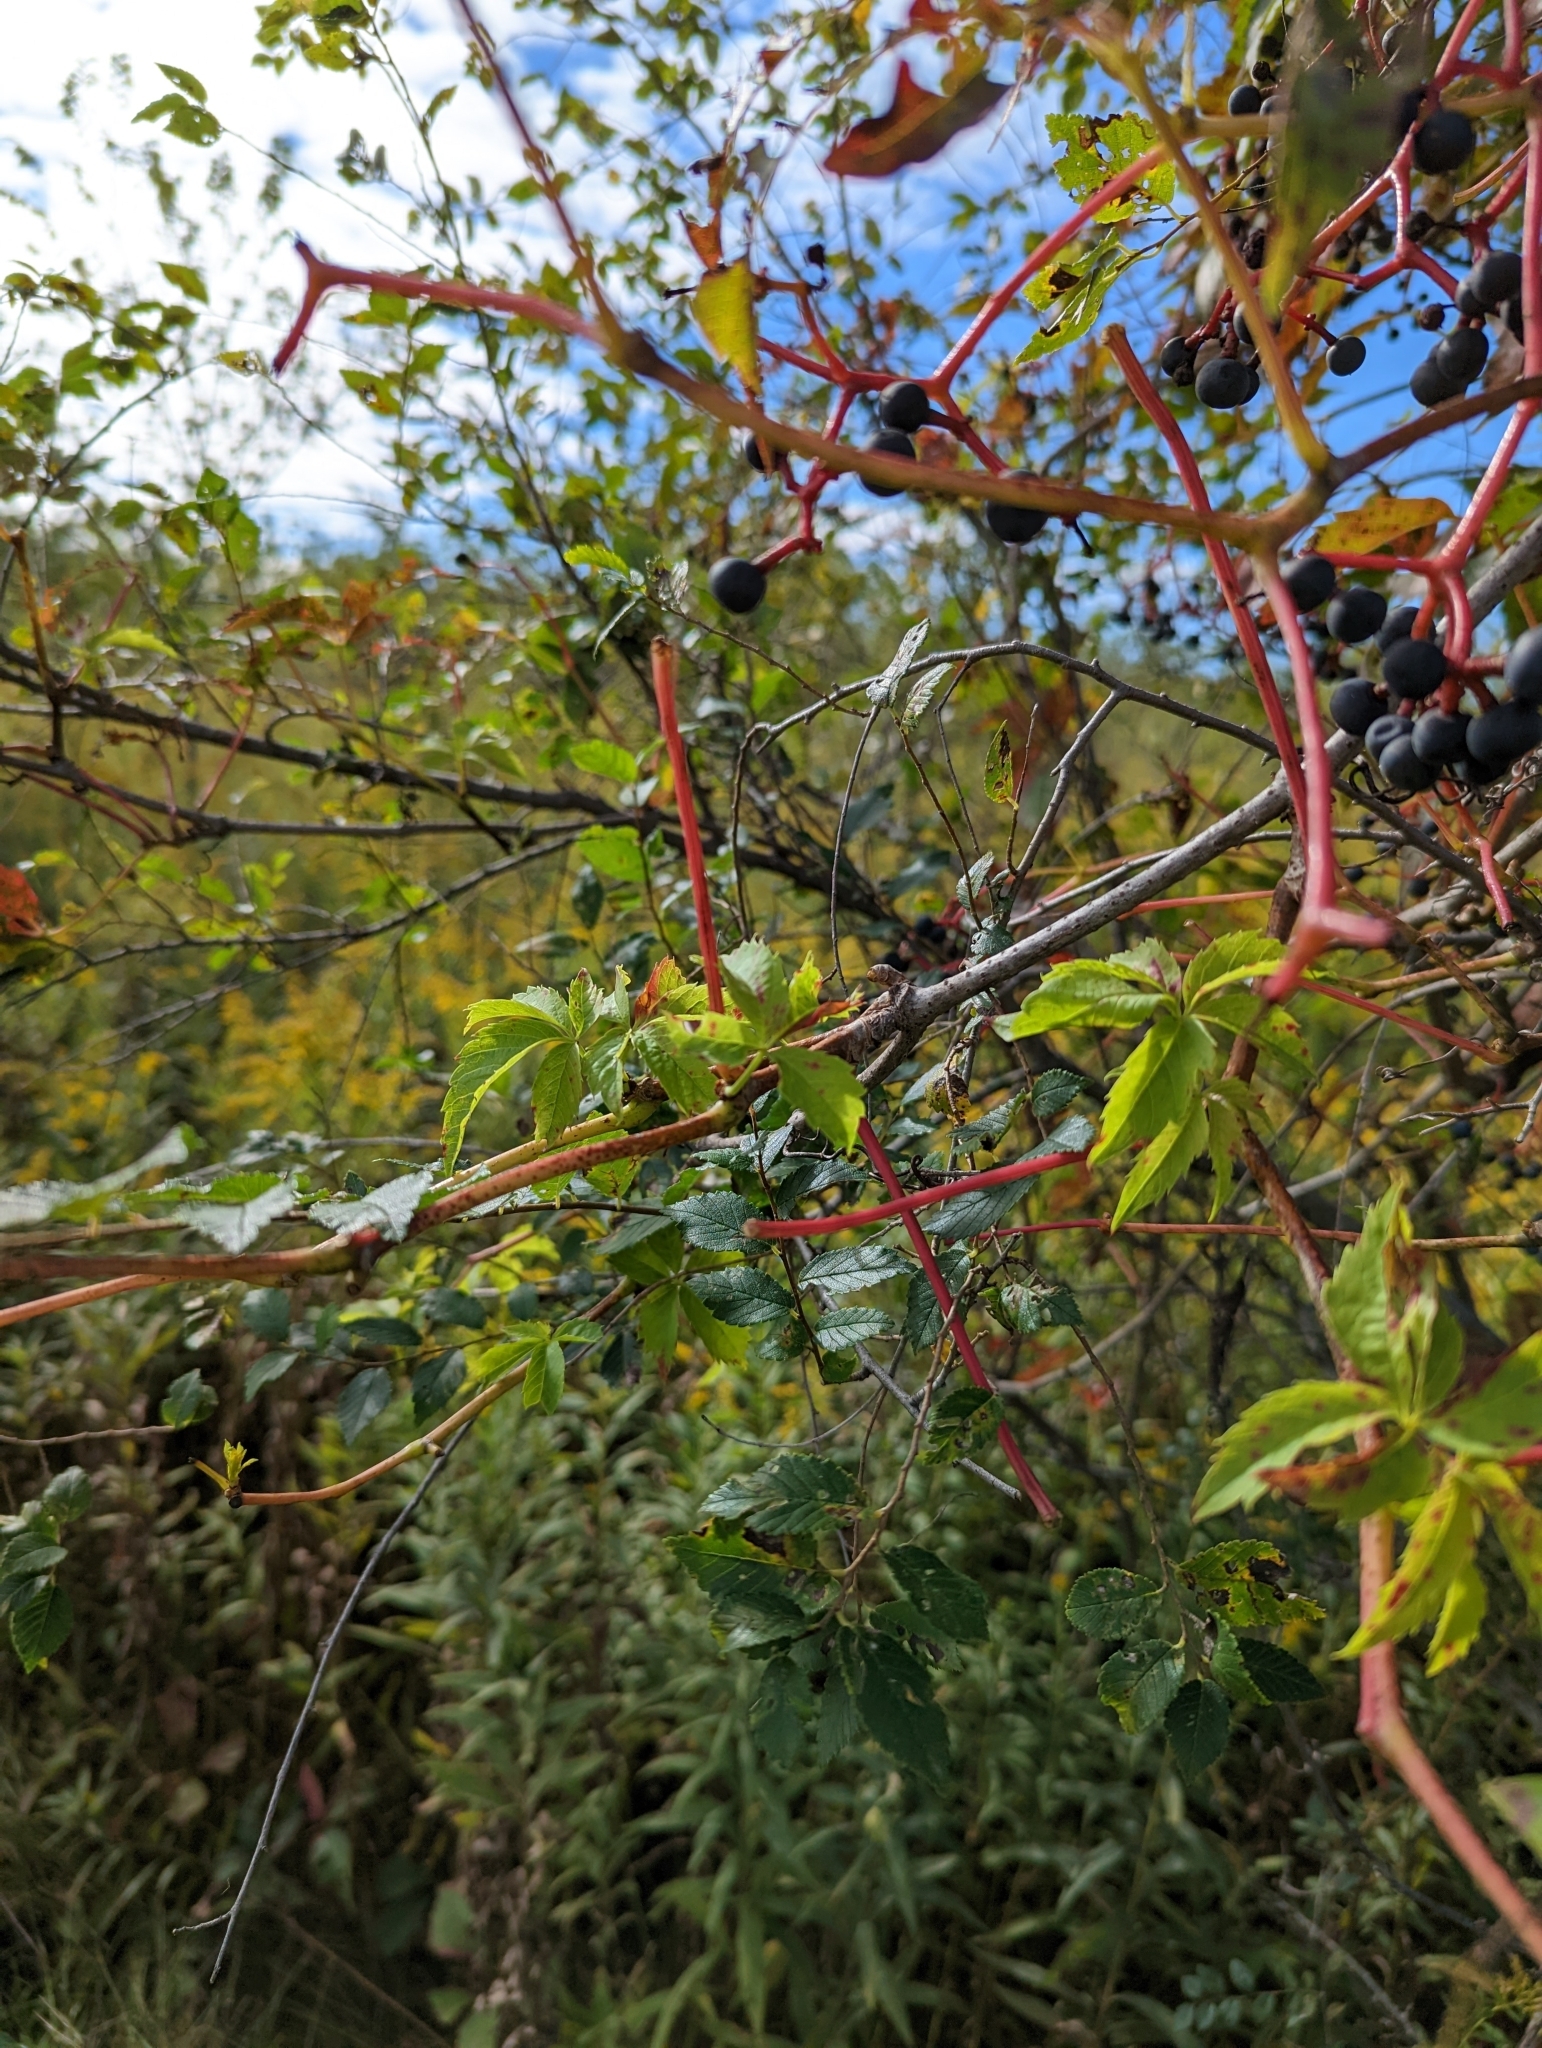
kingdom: Plantae
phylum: Tracheophyta
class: Magnoliopsida
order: Vitales
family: Vitaceae
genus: Parthenocissus
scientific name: Parthenocissus quinquefolia
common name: Virginia-creeper
